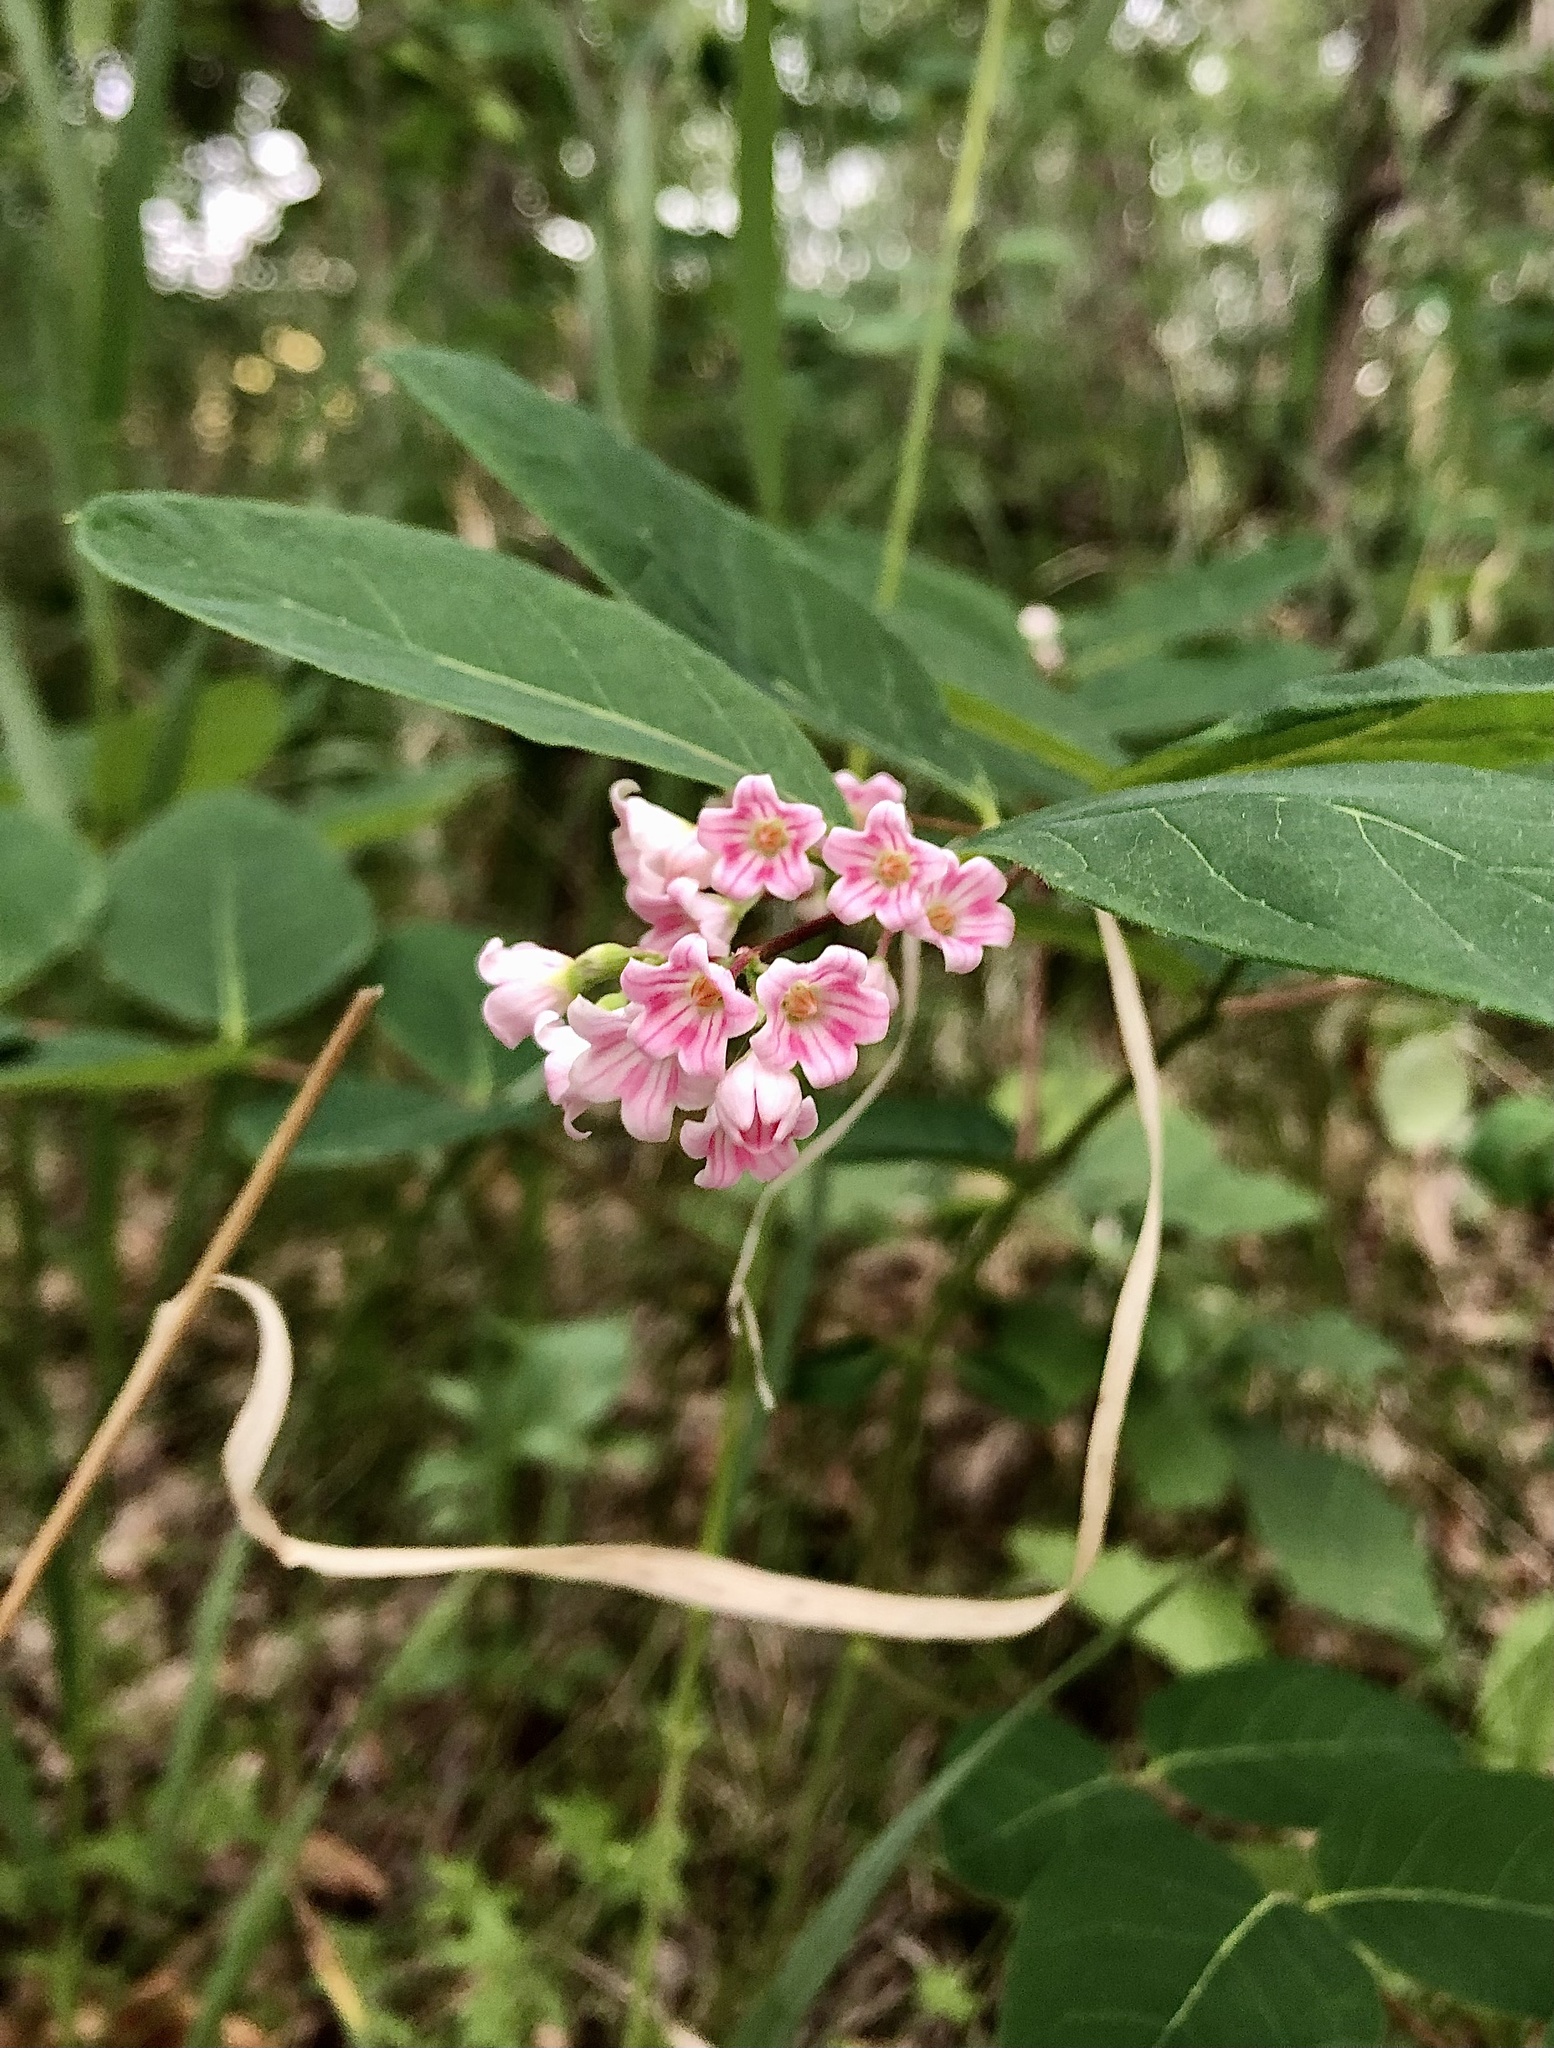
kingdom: Plantae
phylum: Tracheophyta
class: Magnoliopsida
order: Gentianales
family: Apocynaceae
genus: Apocynum
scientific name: Apocynum androsaemifolium
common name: Spreading dogbane
